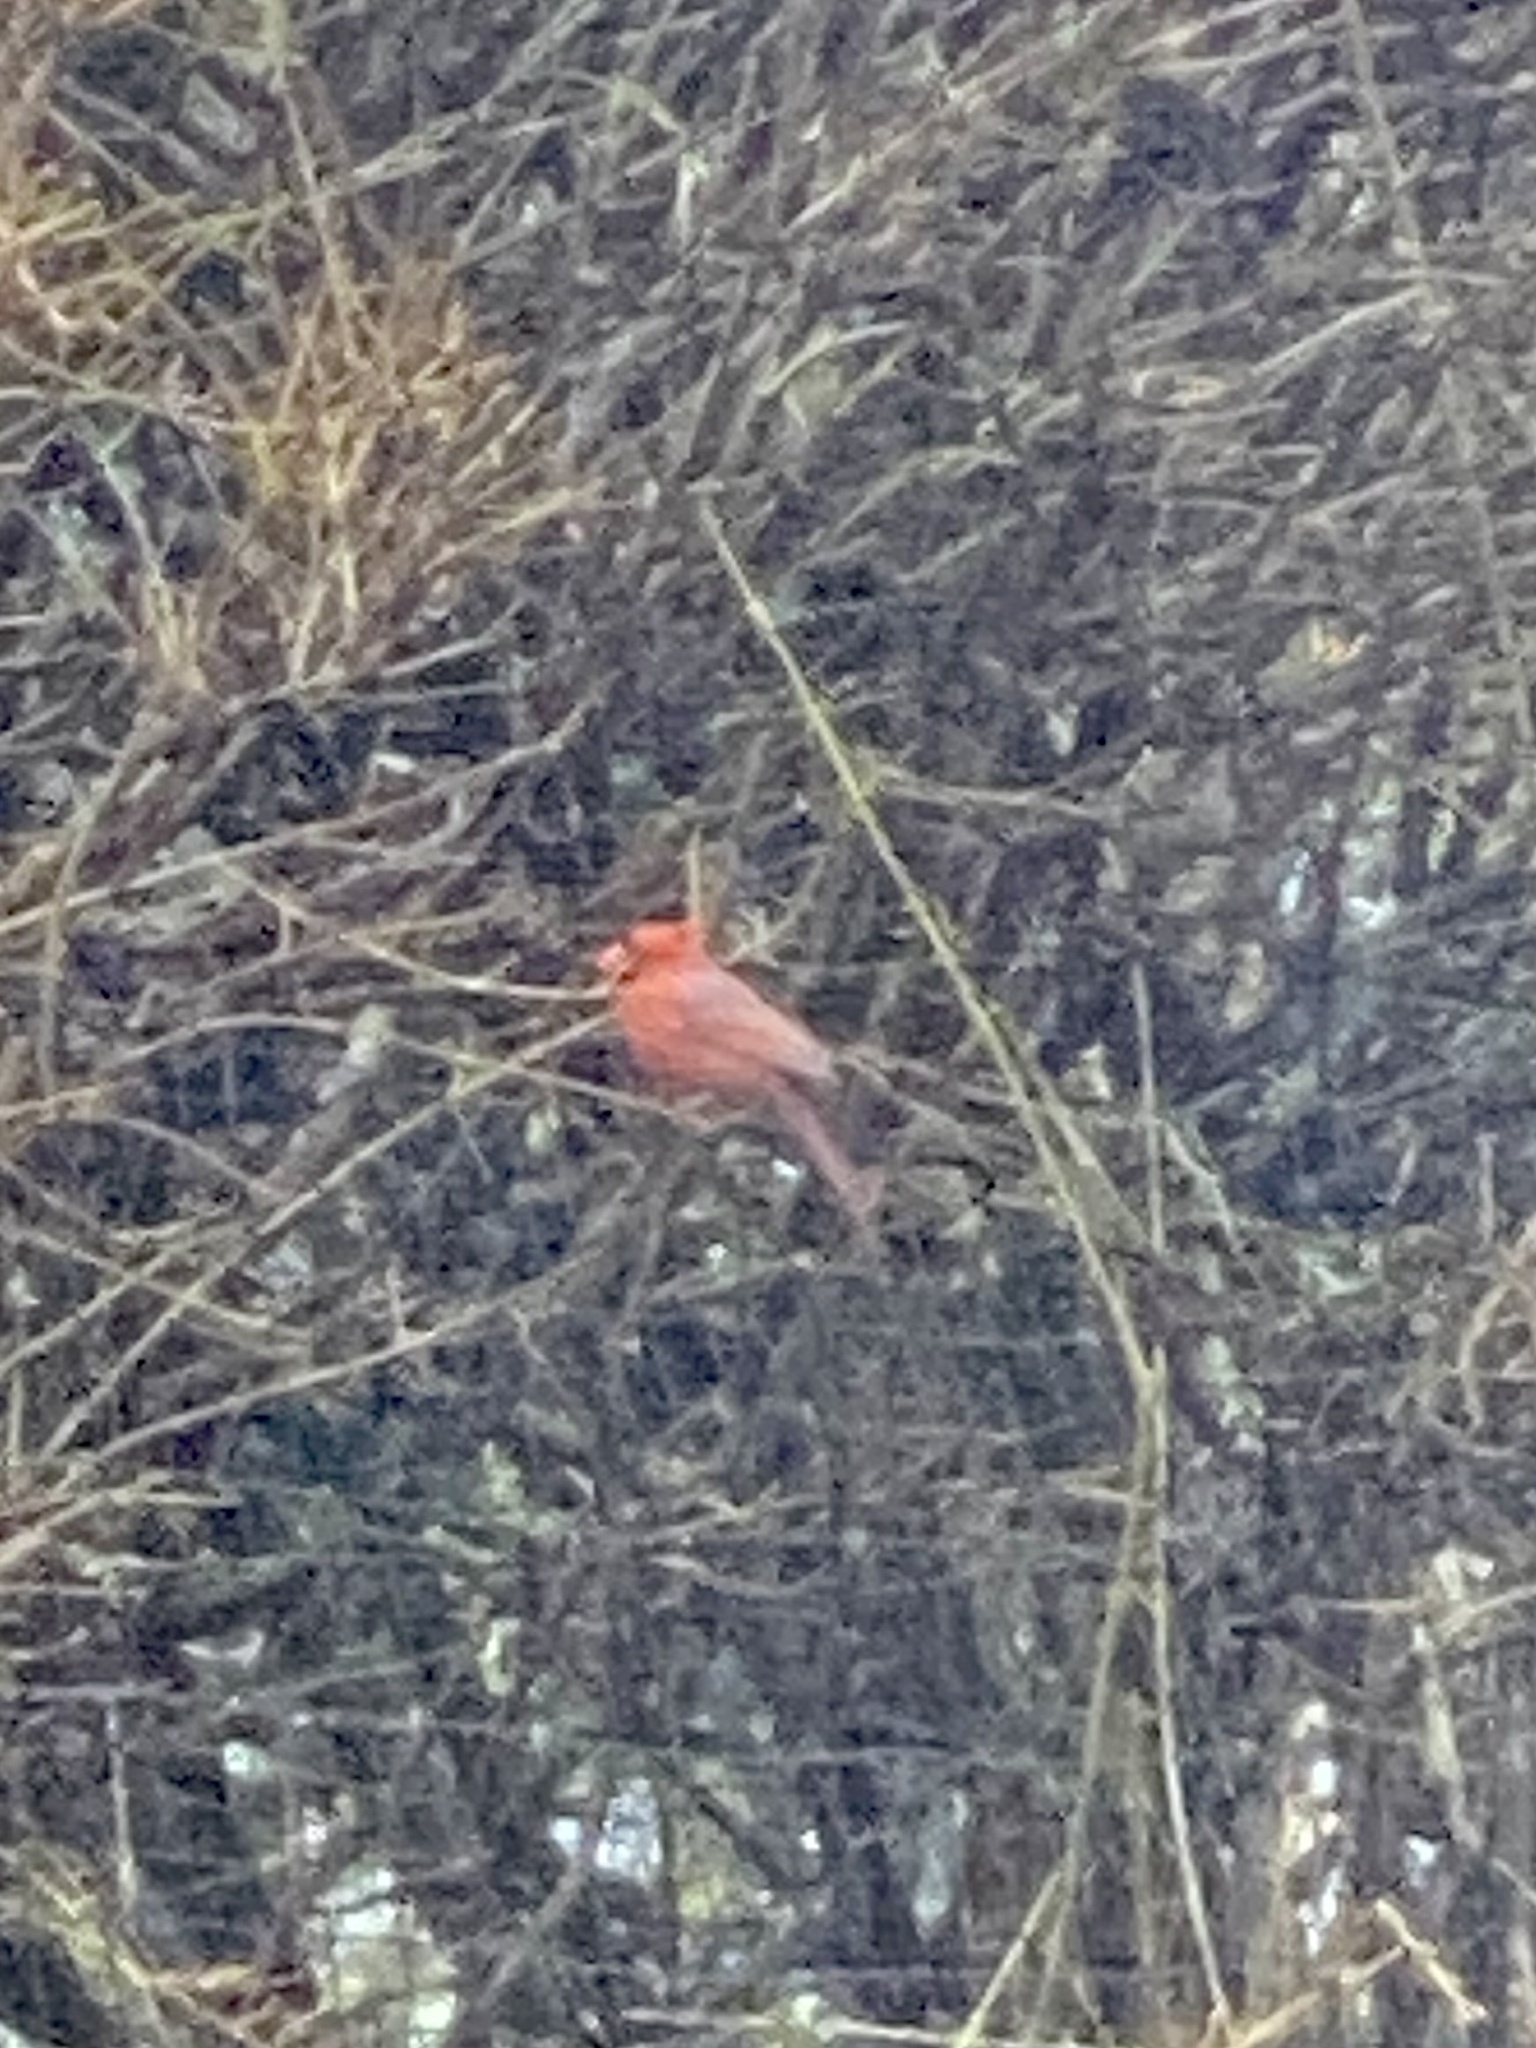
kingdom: Animalia
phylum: Chordata
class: Aves
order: Passeriformes
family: Cardinalidae
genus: Cardinalis
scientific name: Cardinalis cardinalis
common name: Northern cardinal
